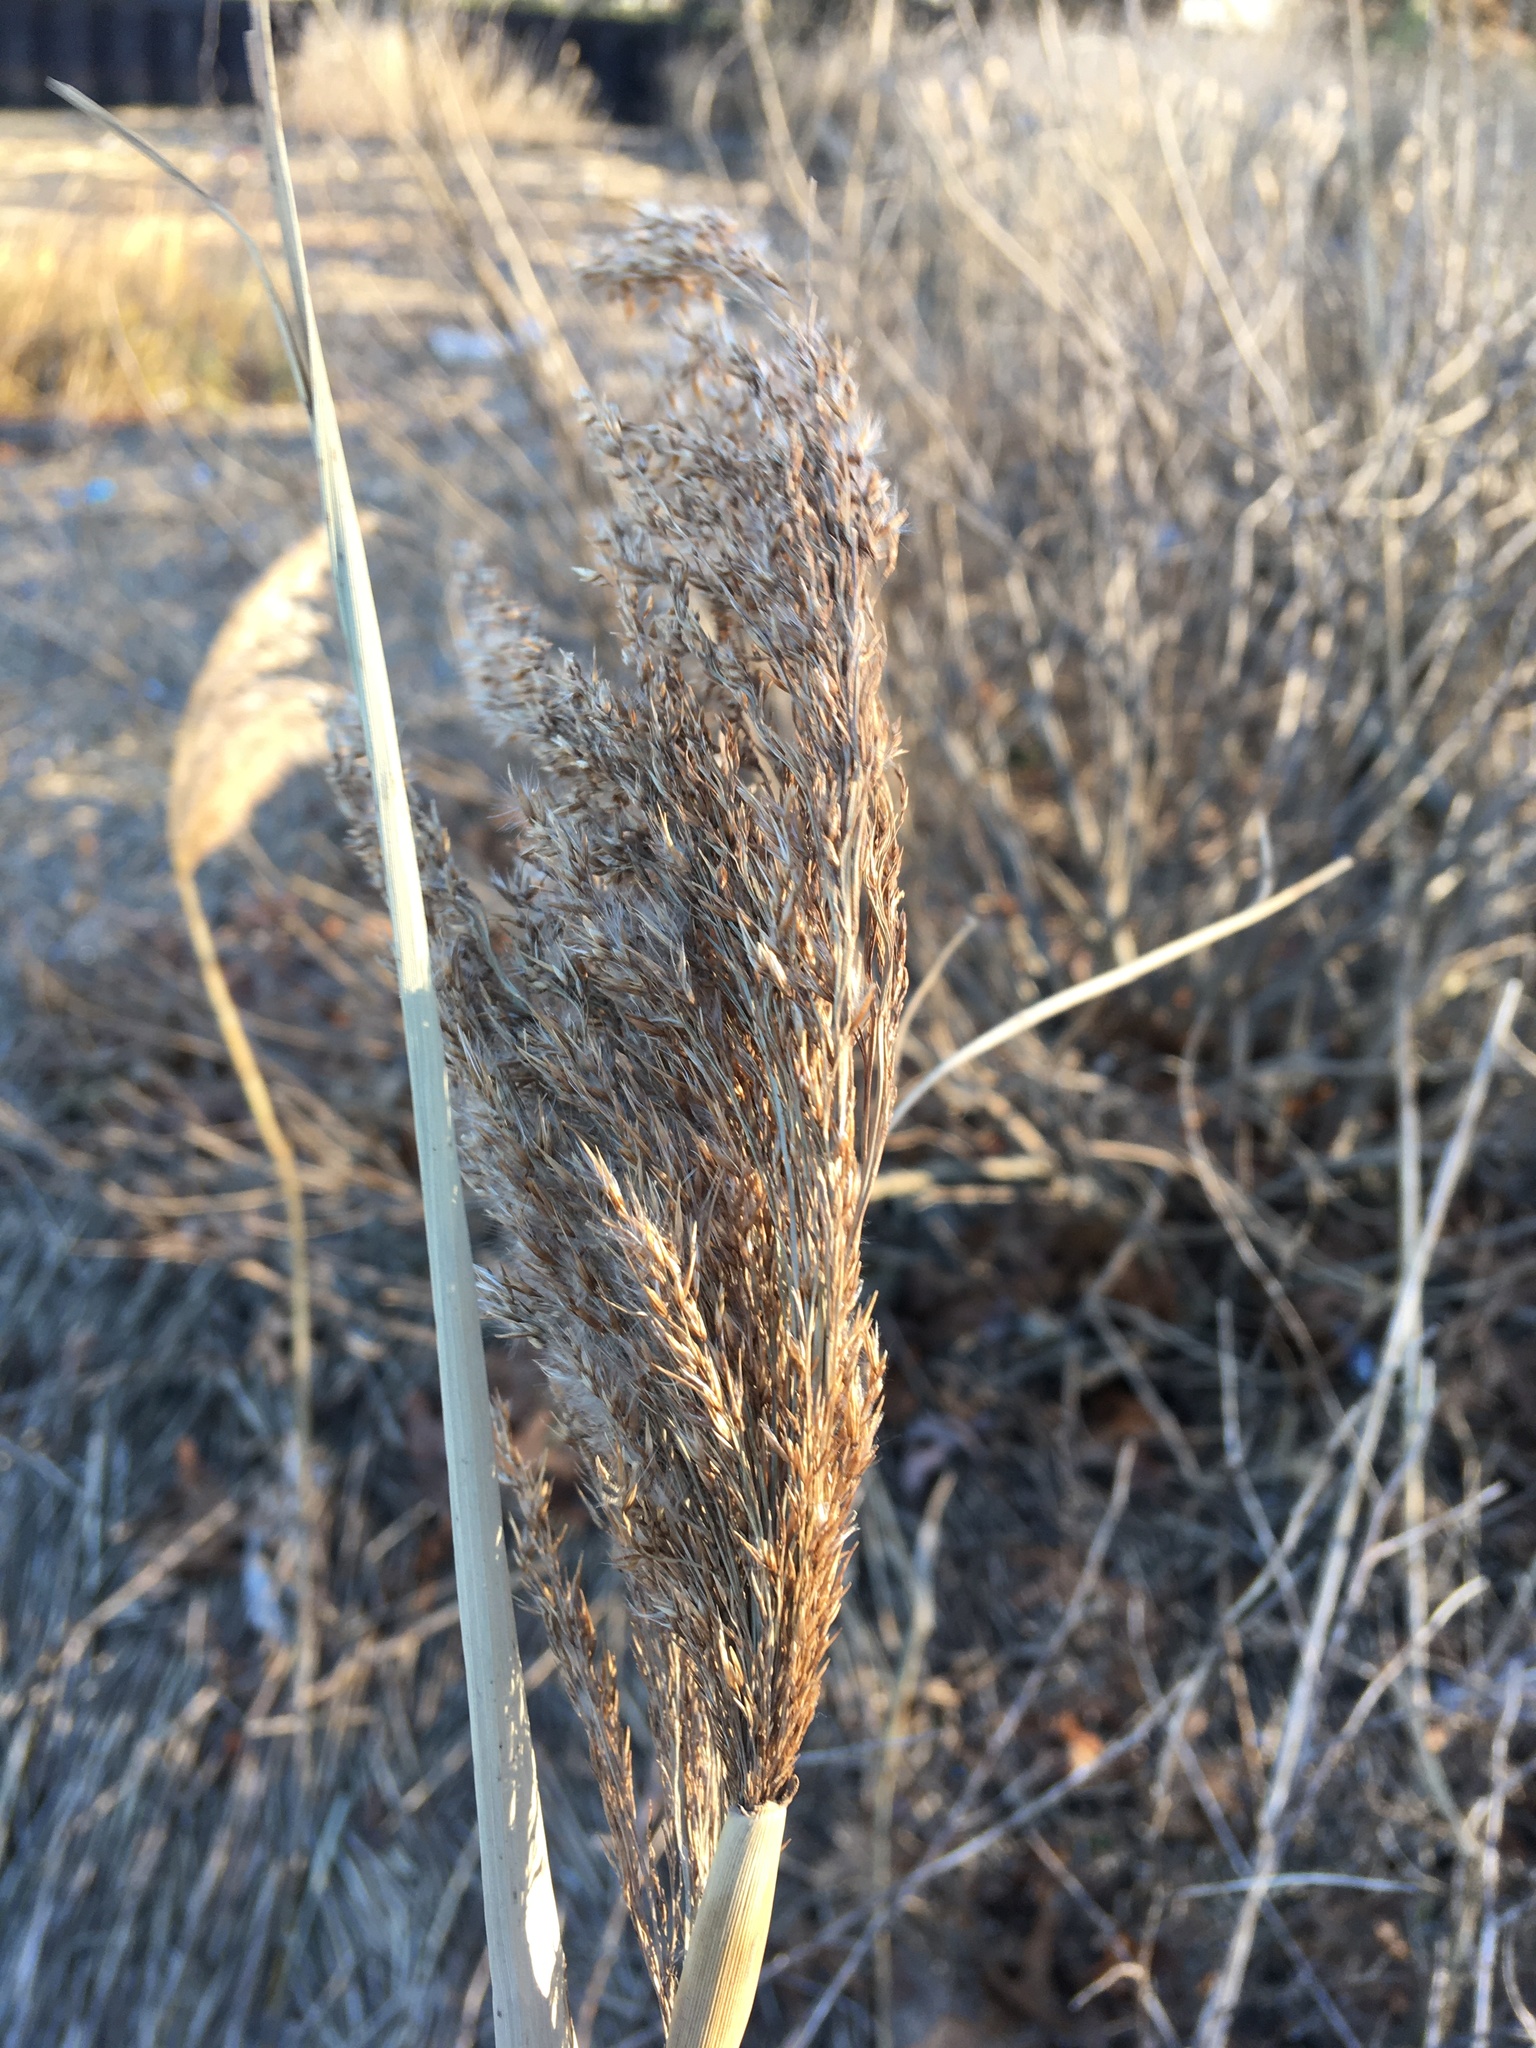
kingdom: Plantae
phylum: Tracheophyta
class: Liliopsida
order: Poales
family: Poaceae
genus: Phragmites
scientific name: Phragmites australis
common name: Common reed
